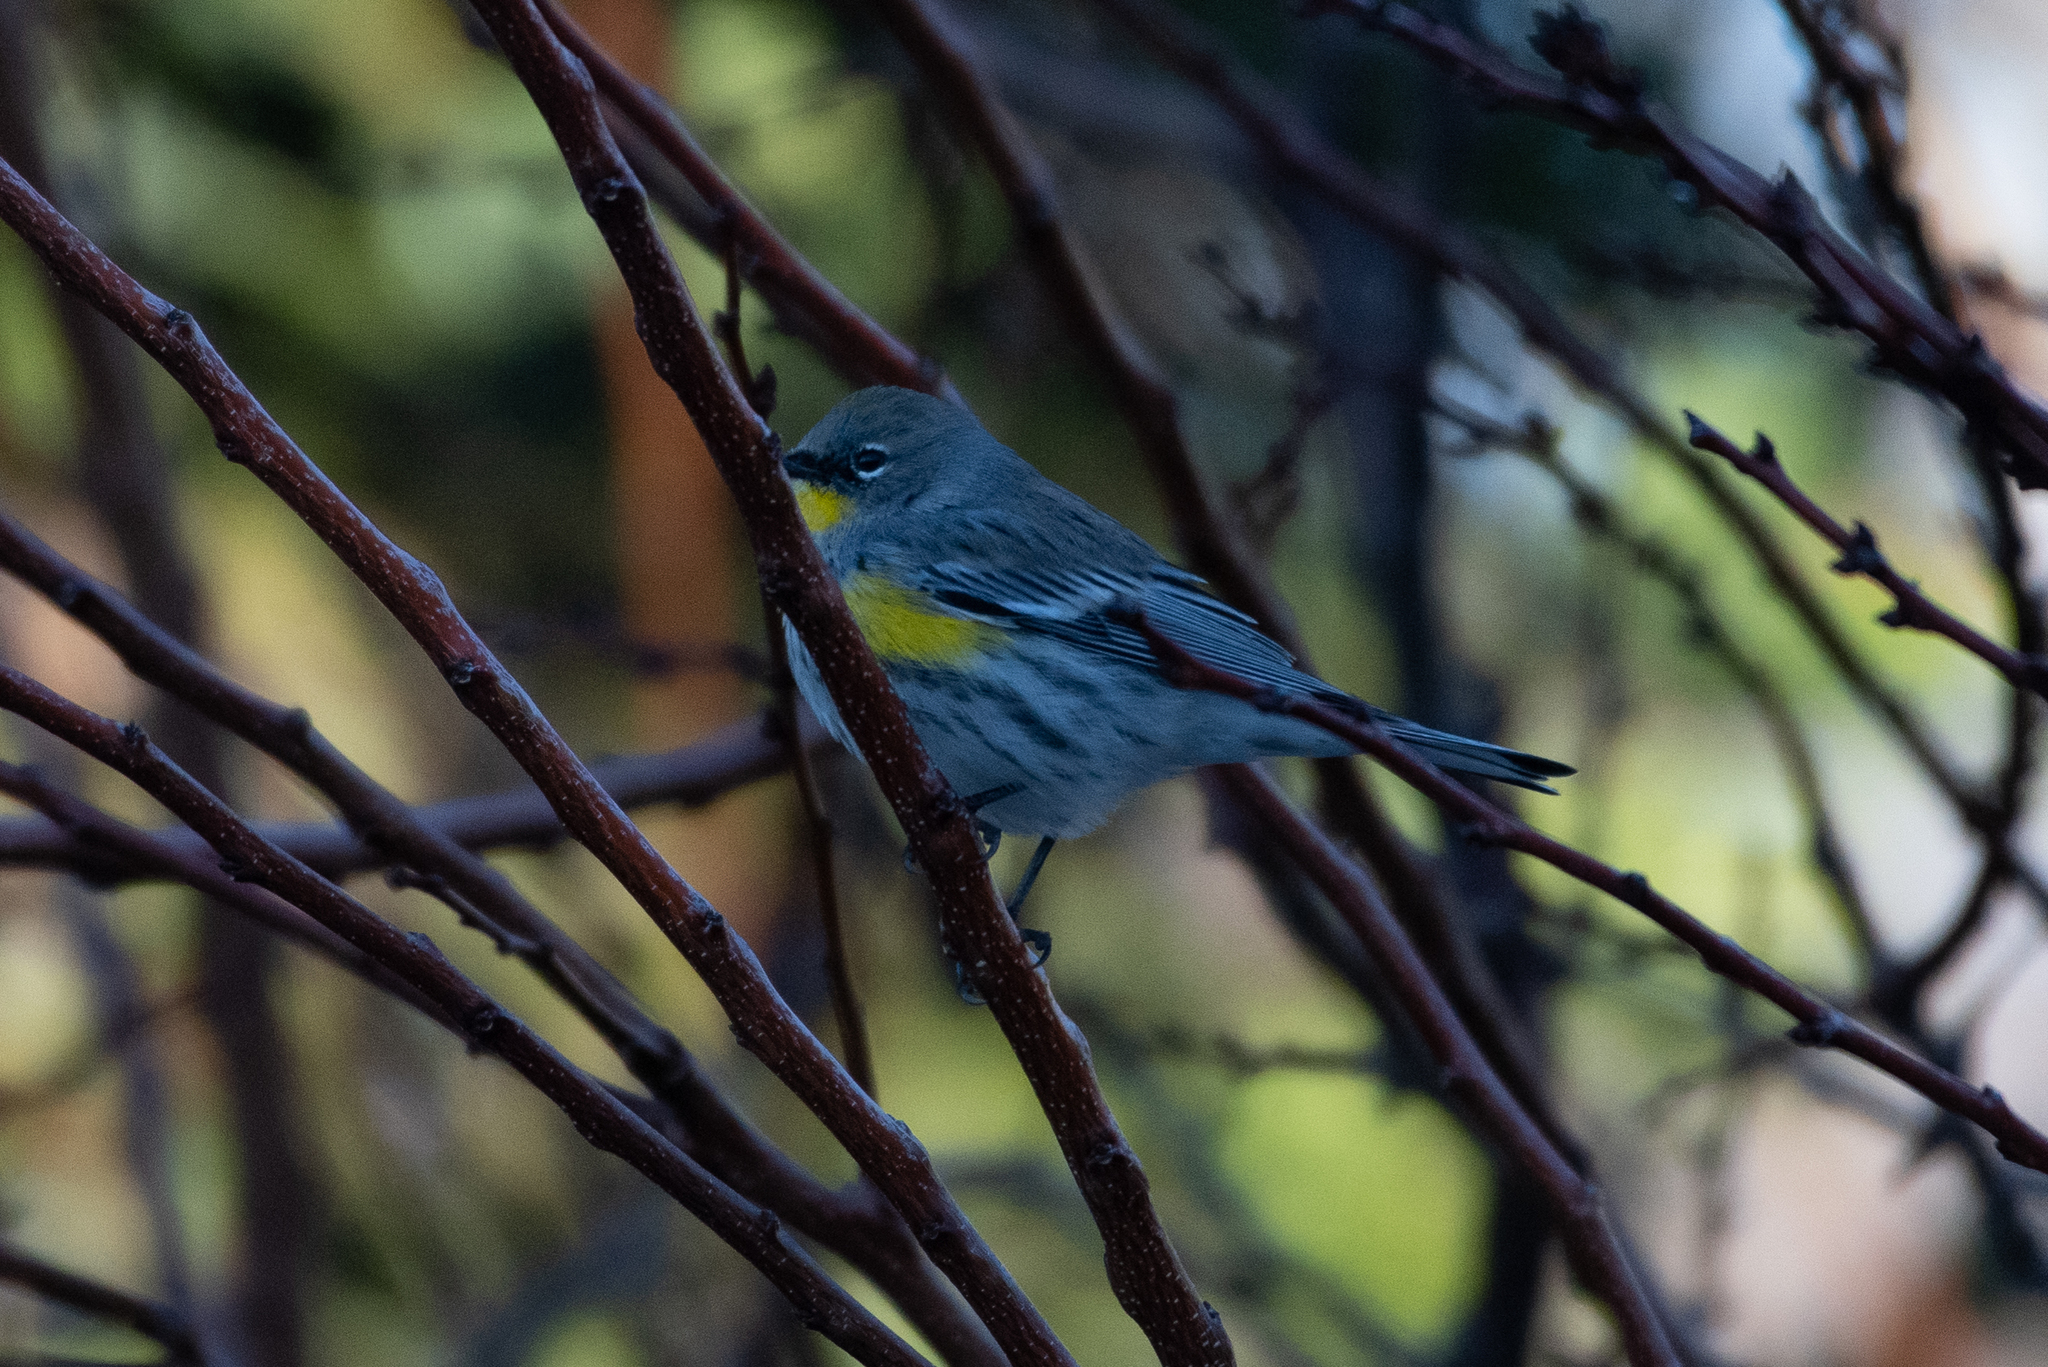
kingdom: Animalia
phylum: Chordata
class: Aves
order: Passeriformes
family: Parulidae
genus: Setophaga
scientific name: Setophaga coronata
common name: Myrtle warbler
